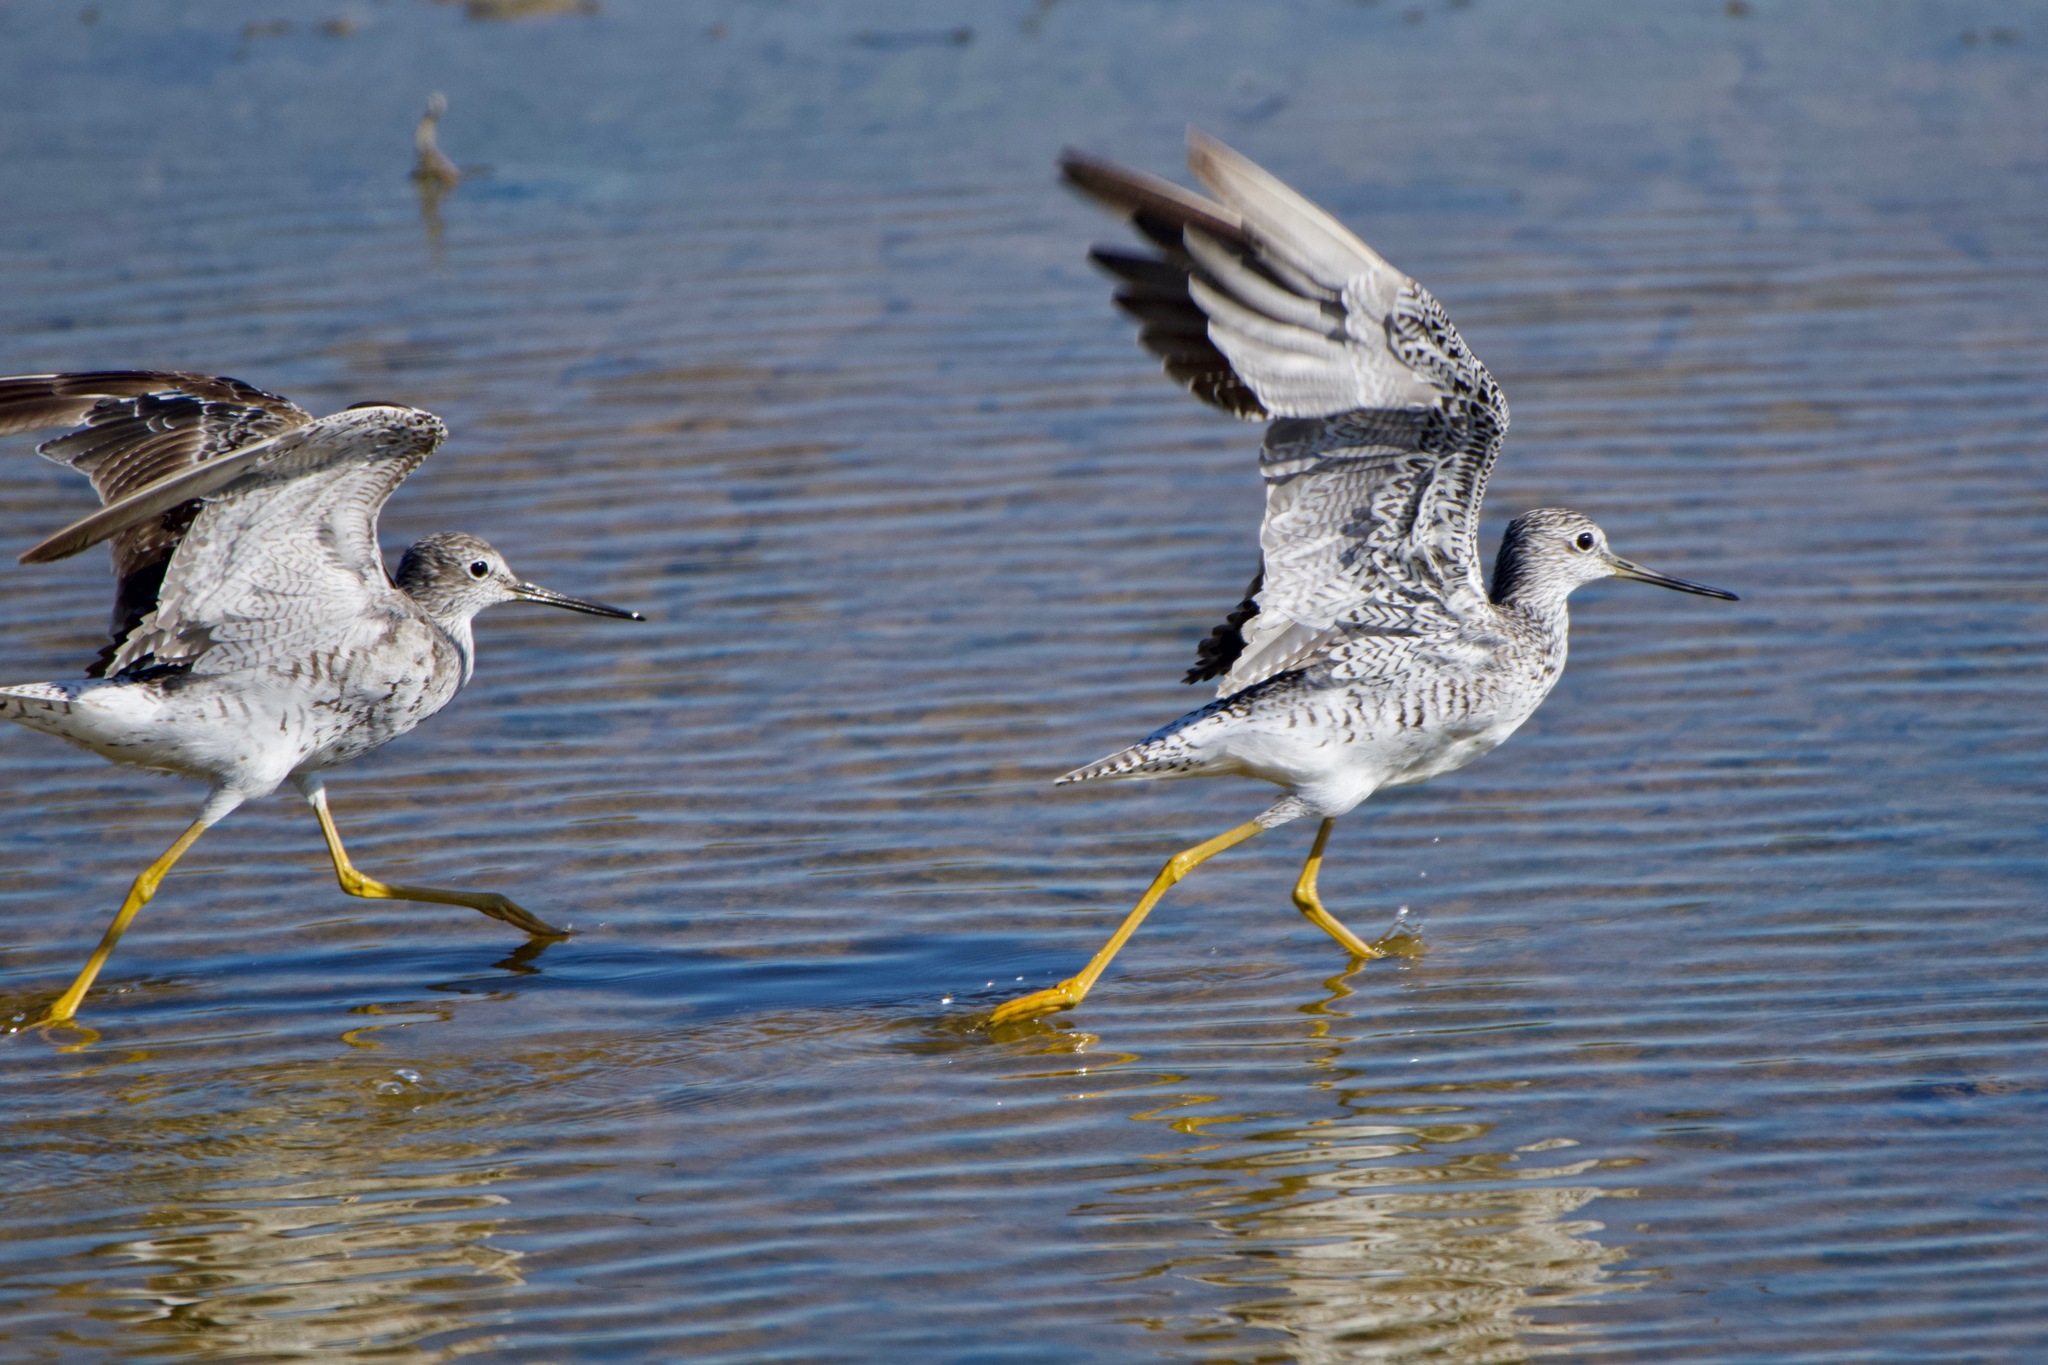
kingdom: Animalia
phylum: Chordata
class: Aves
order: Charadriiformes
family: Scolopacidae
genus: Tringa
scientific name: Tringa melanoleuca
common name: Greater yellowlegs
